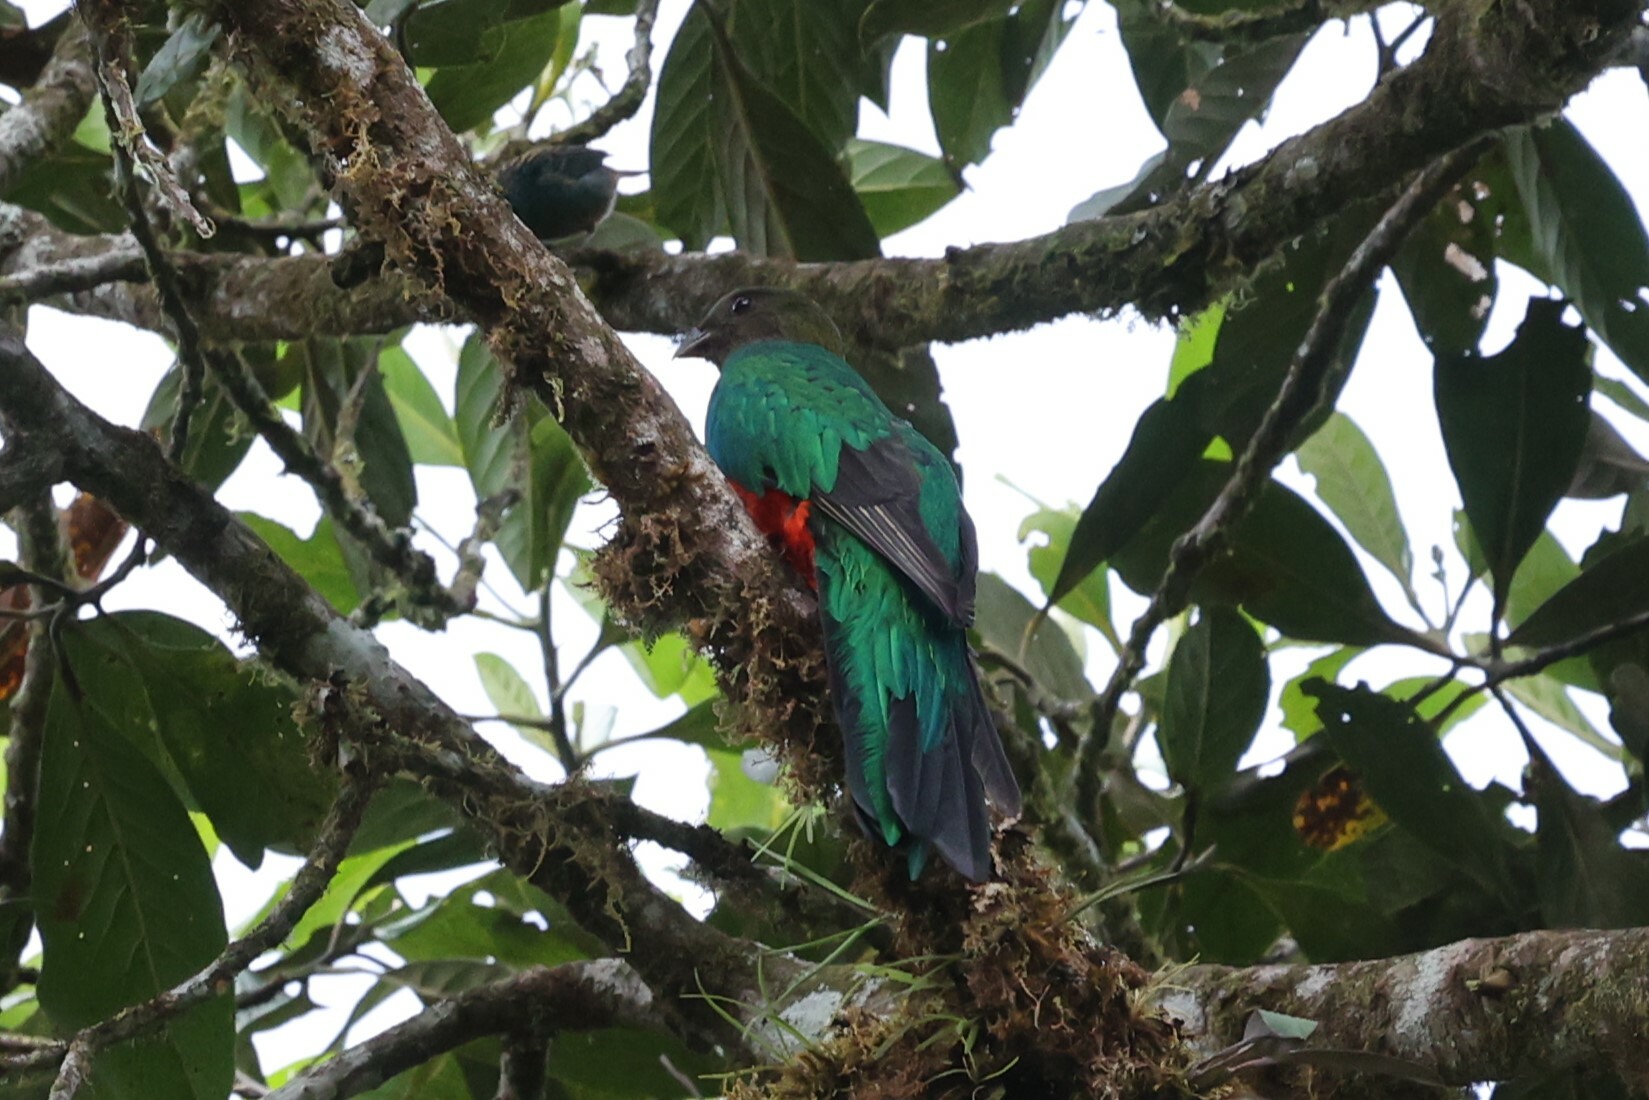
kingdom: Animalia
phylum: Chordata
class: Aves
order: Trogoniformes
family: Trogonidae
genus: Pharomachrus
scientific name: Pharomachrus auriceps
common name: Golden-headed quetzal
